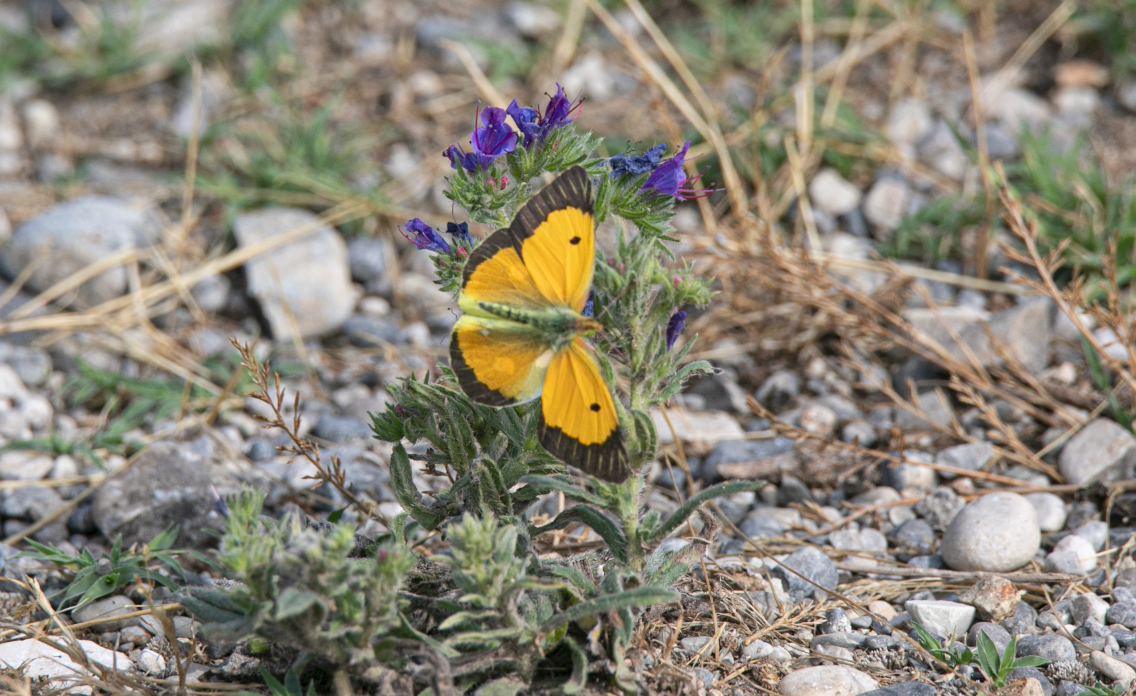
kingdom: Animalia
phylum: Arthropoda
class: Insecta
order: Lepidoptera
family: Pieridae
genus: Colias
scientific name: Colias croceus
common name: Clouded yellow
